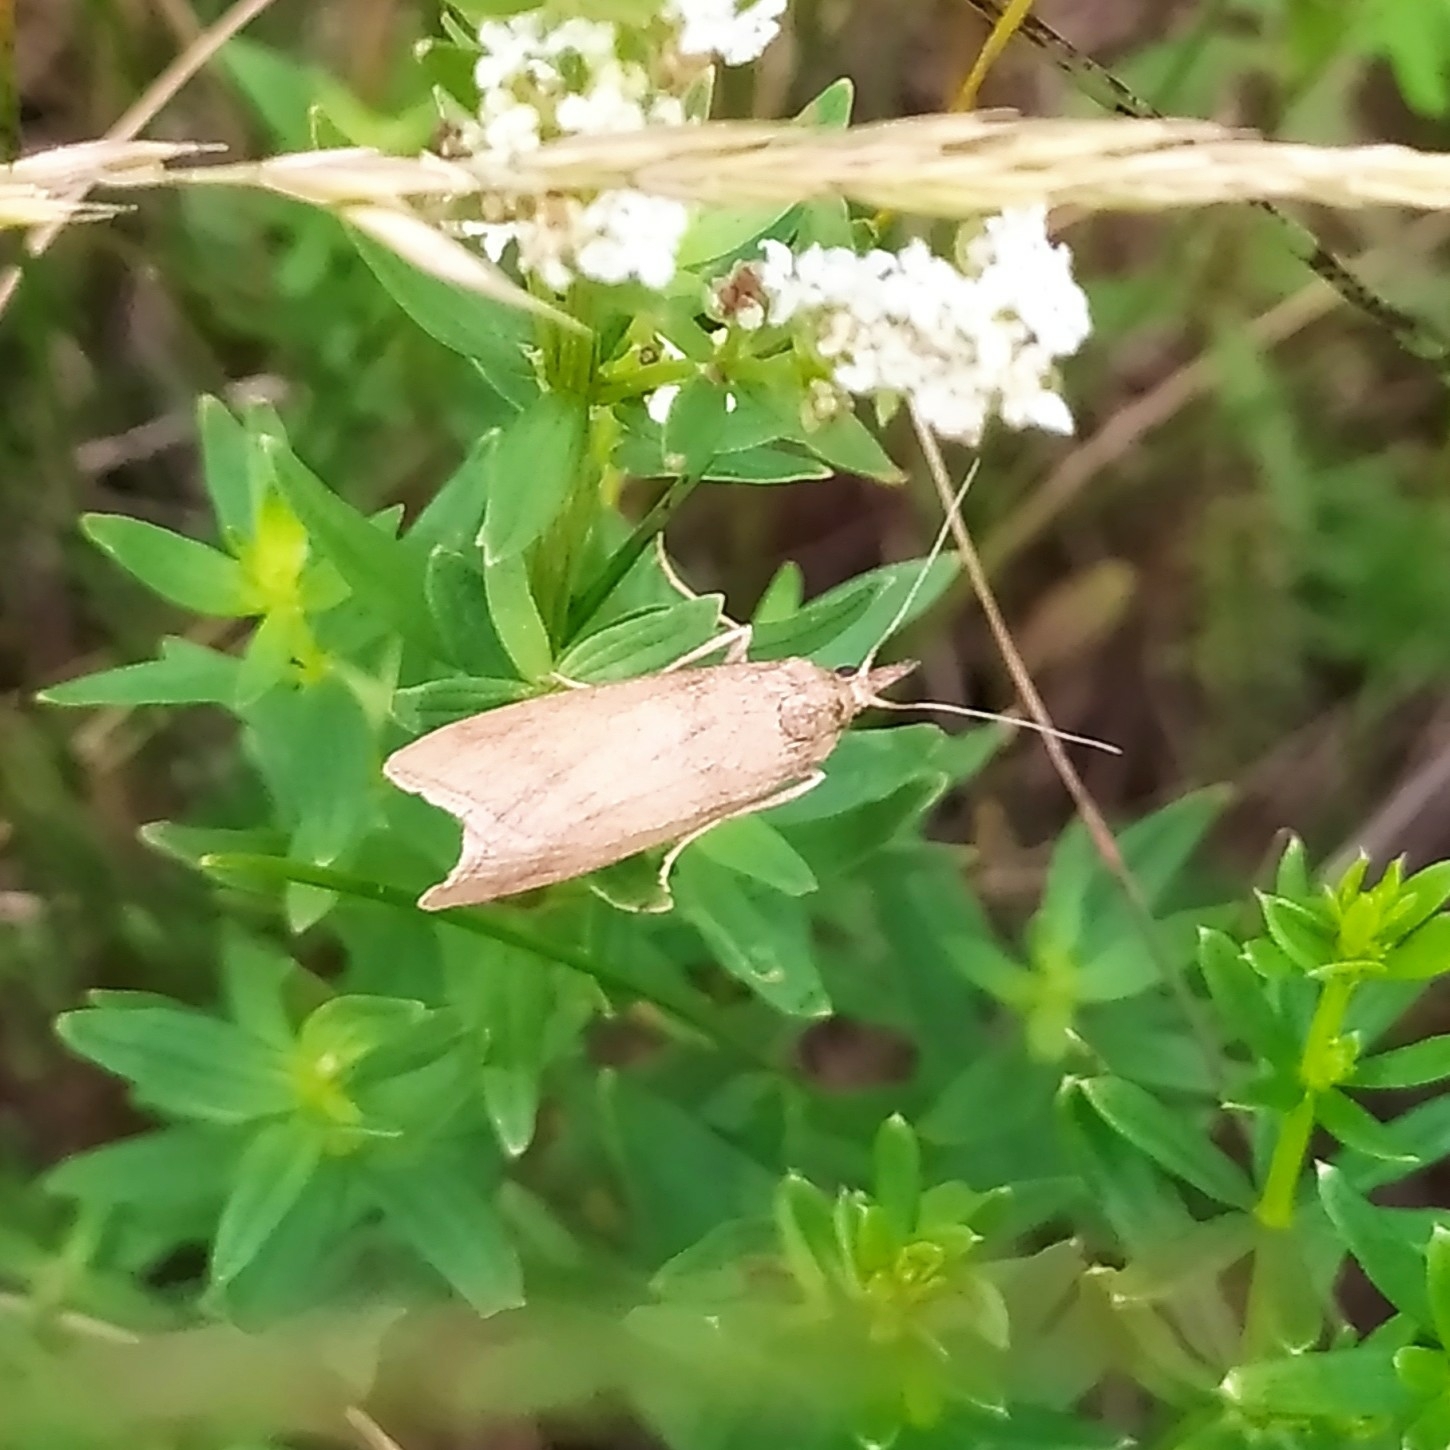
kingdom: Animalia
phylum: Arthropoda
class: Insecta
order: Lepidoptera
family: Pyralidae
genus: Hypochalcia
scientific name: Hypochalcia ahenella
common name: Dingy knot-horn
